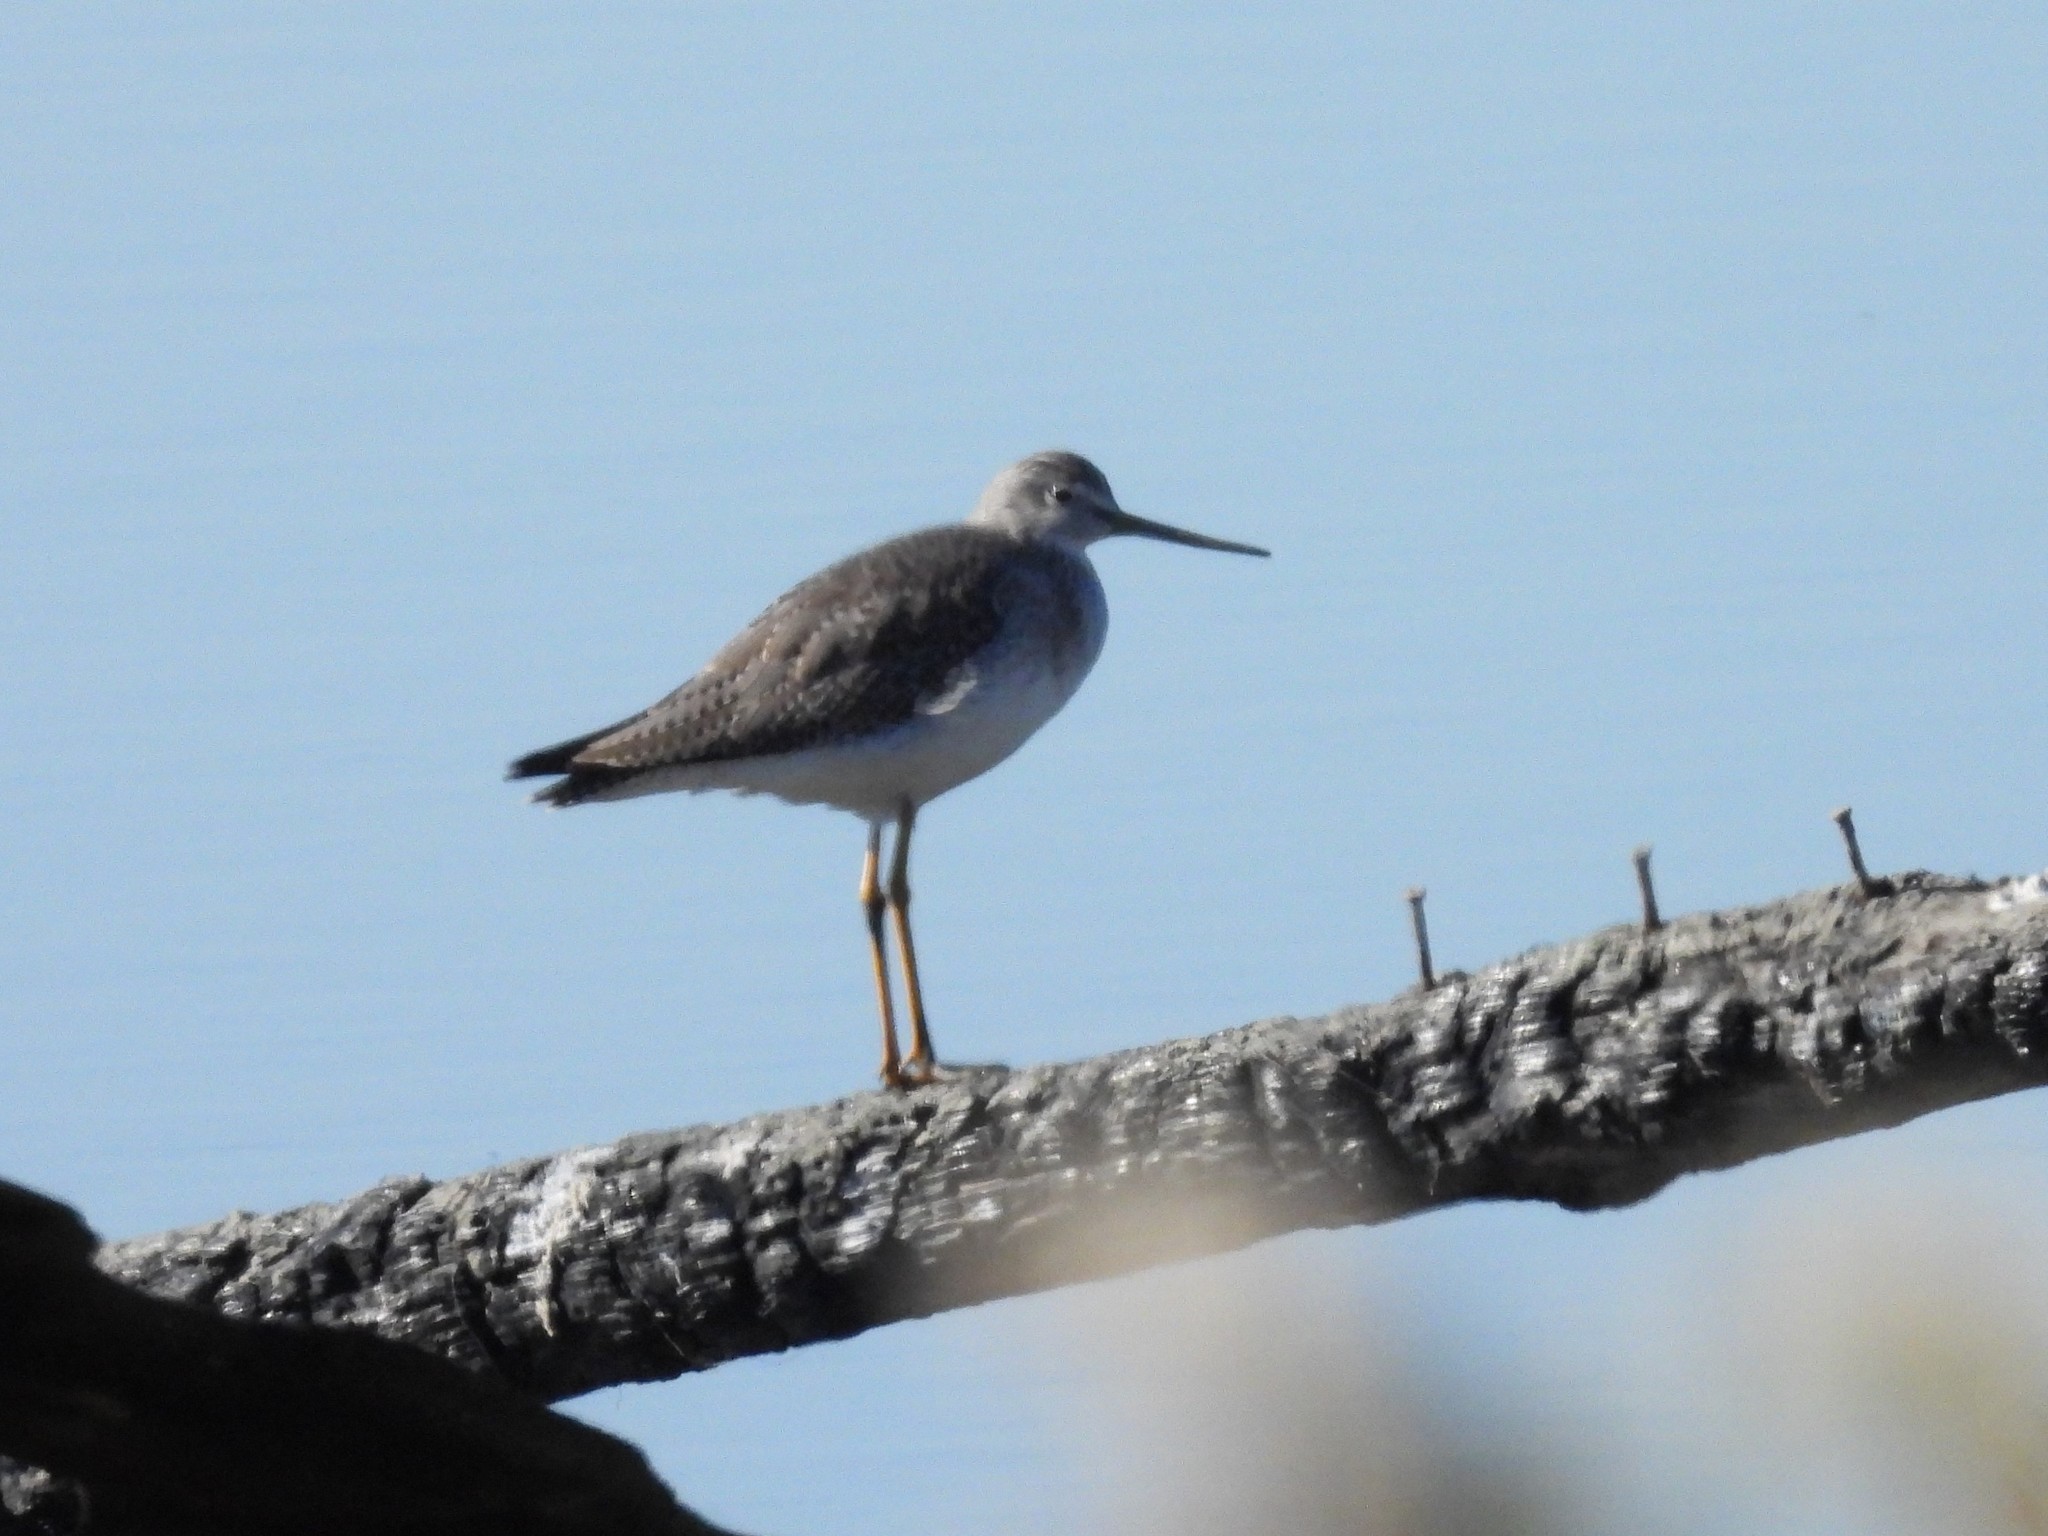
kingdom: Animalia
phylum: Chordata
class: Aves
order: Charadriiformes
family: Scolopacidae
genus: Tringa
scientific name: Tringa melanoleuca
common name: Greater yellowlegs
